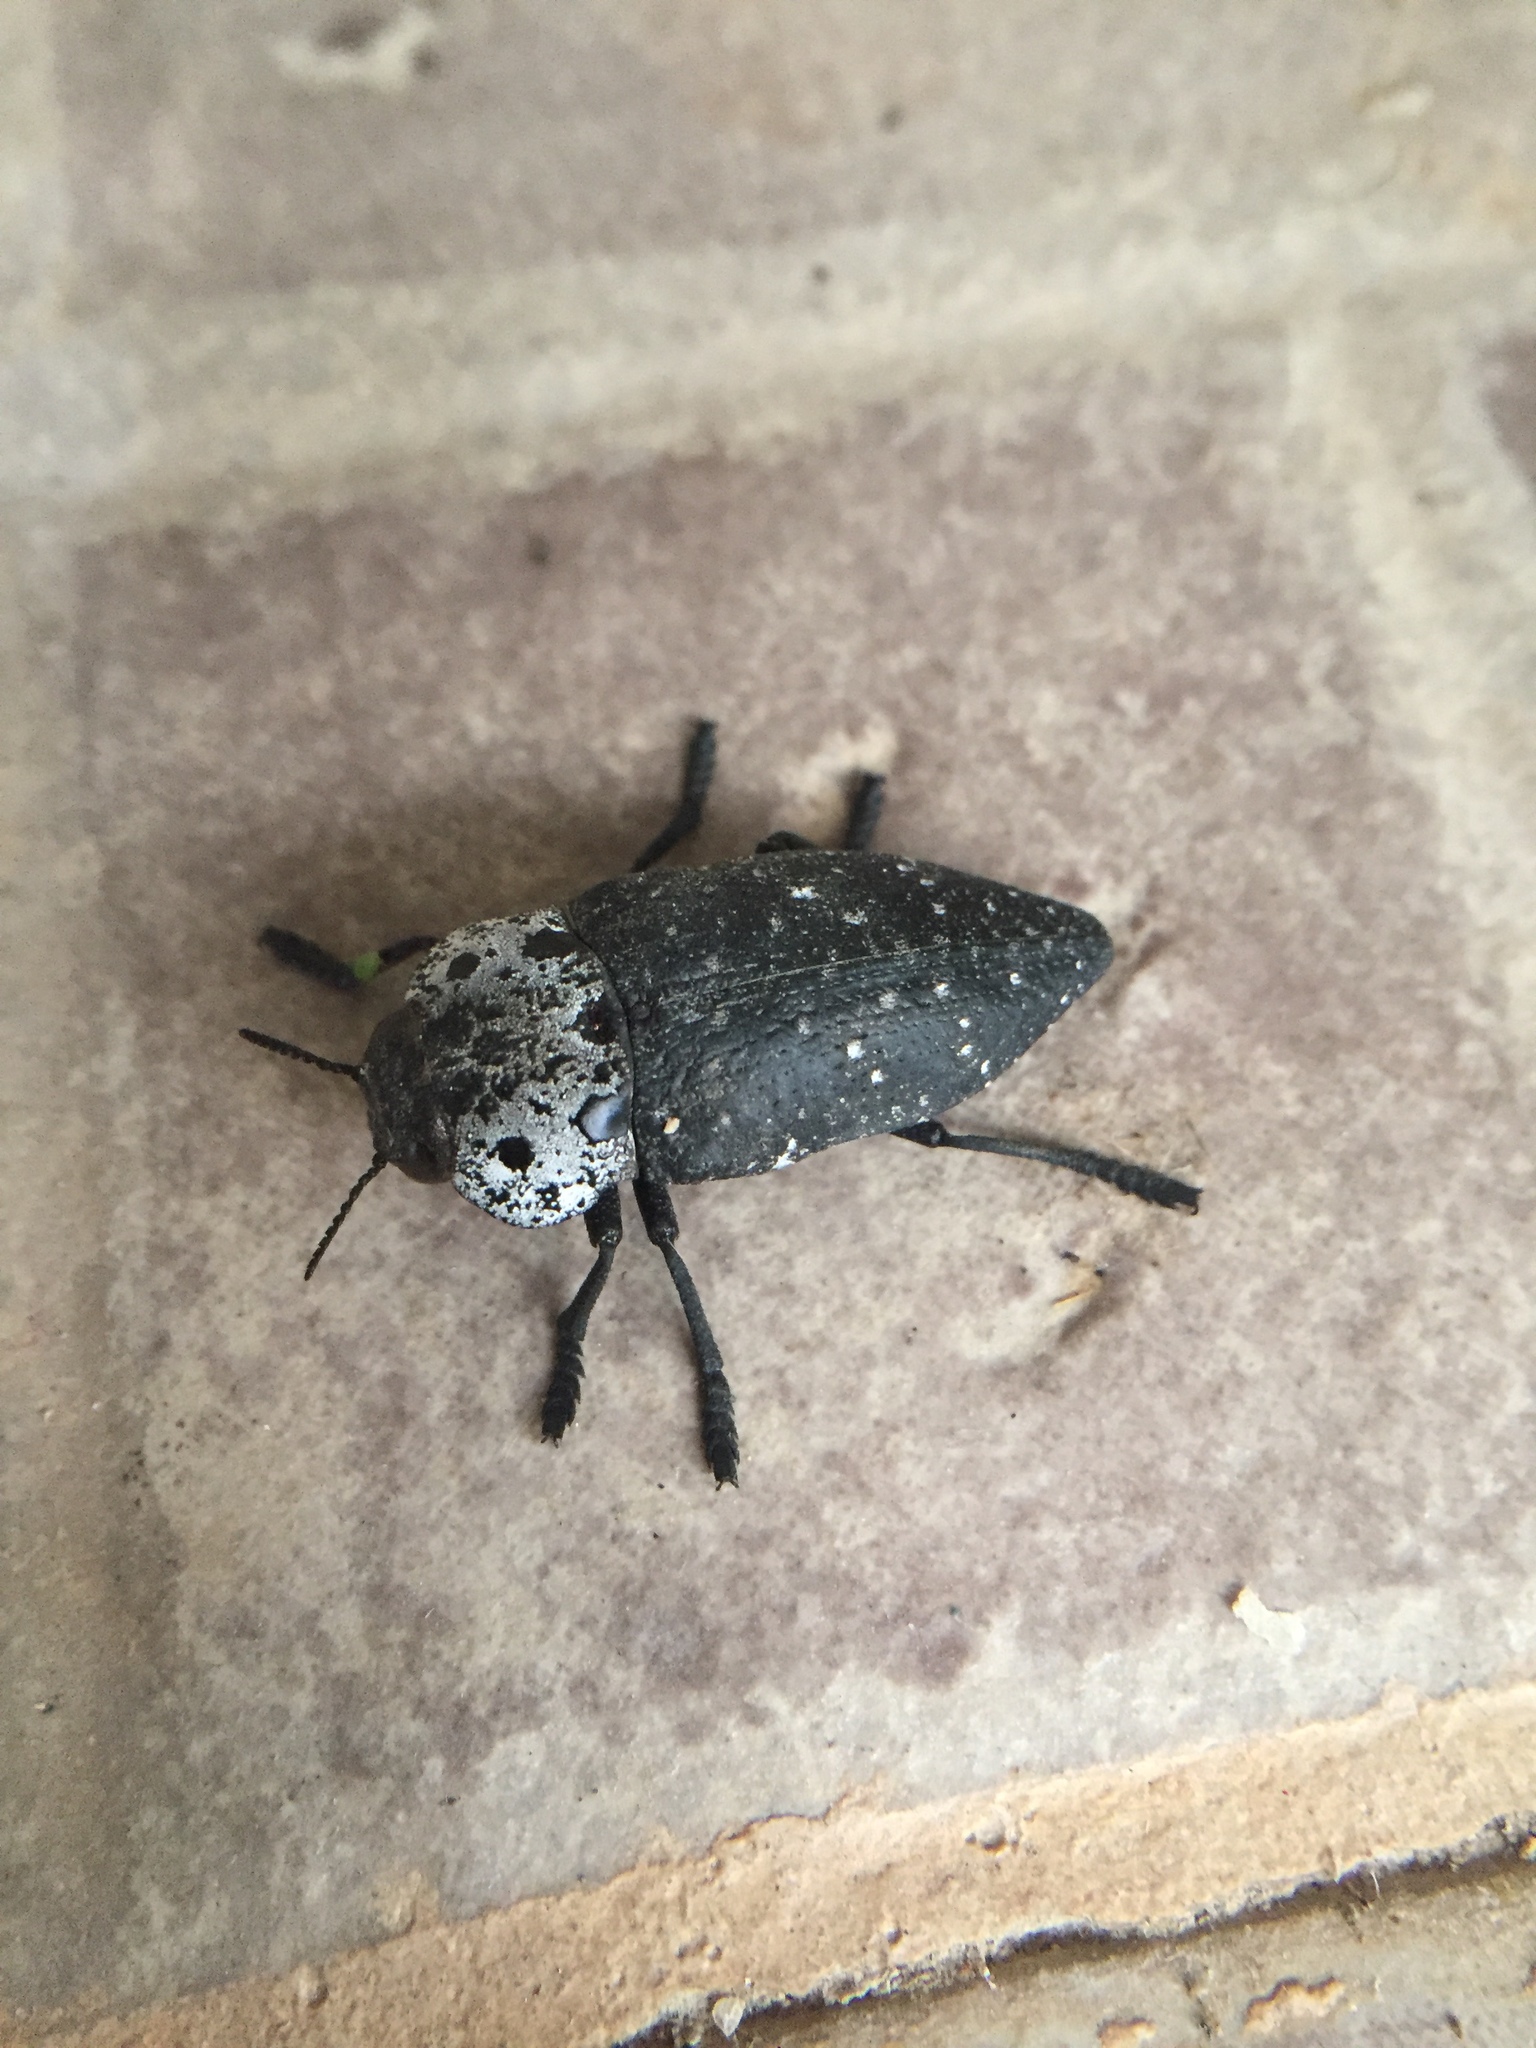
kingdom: Animalia
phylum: Arthropoda
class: Insecta
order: Coleoptera
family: Buprestidae
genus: Capnodis
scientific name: Capnodis tenebrionis
